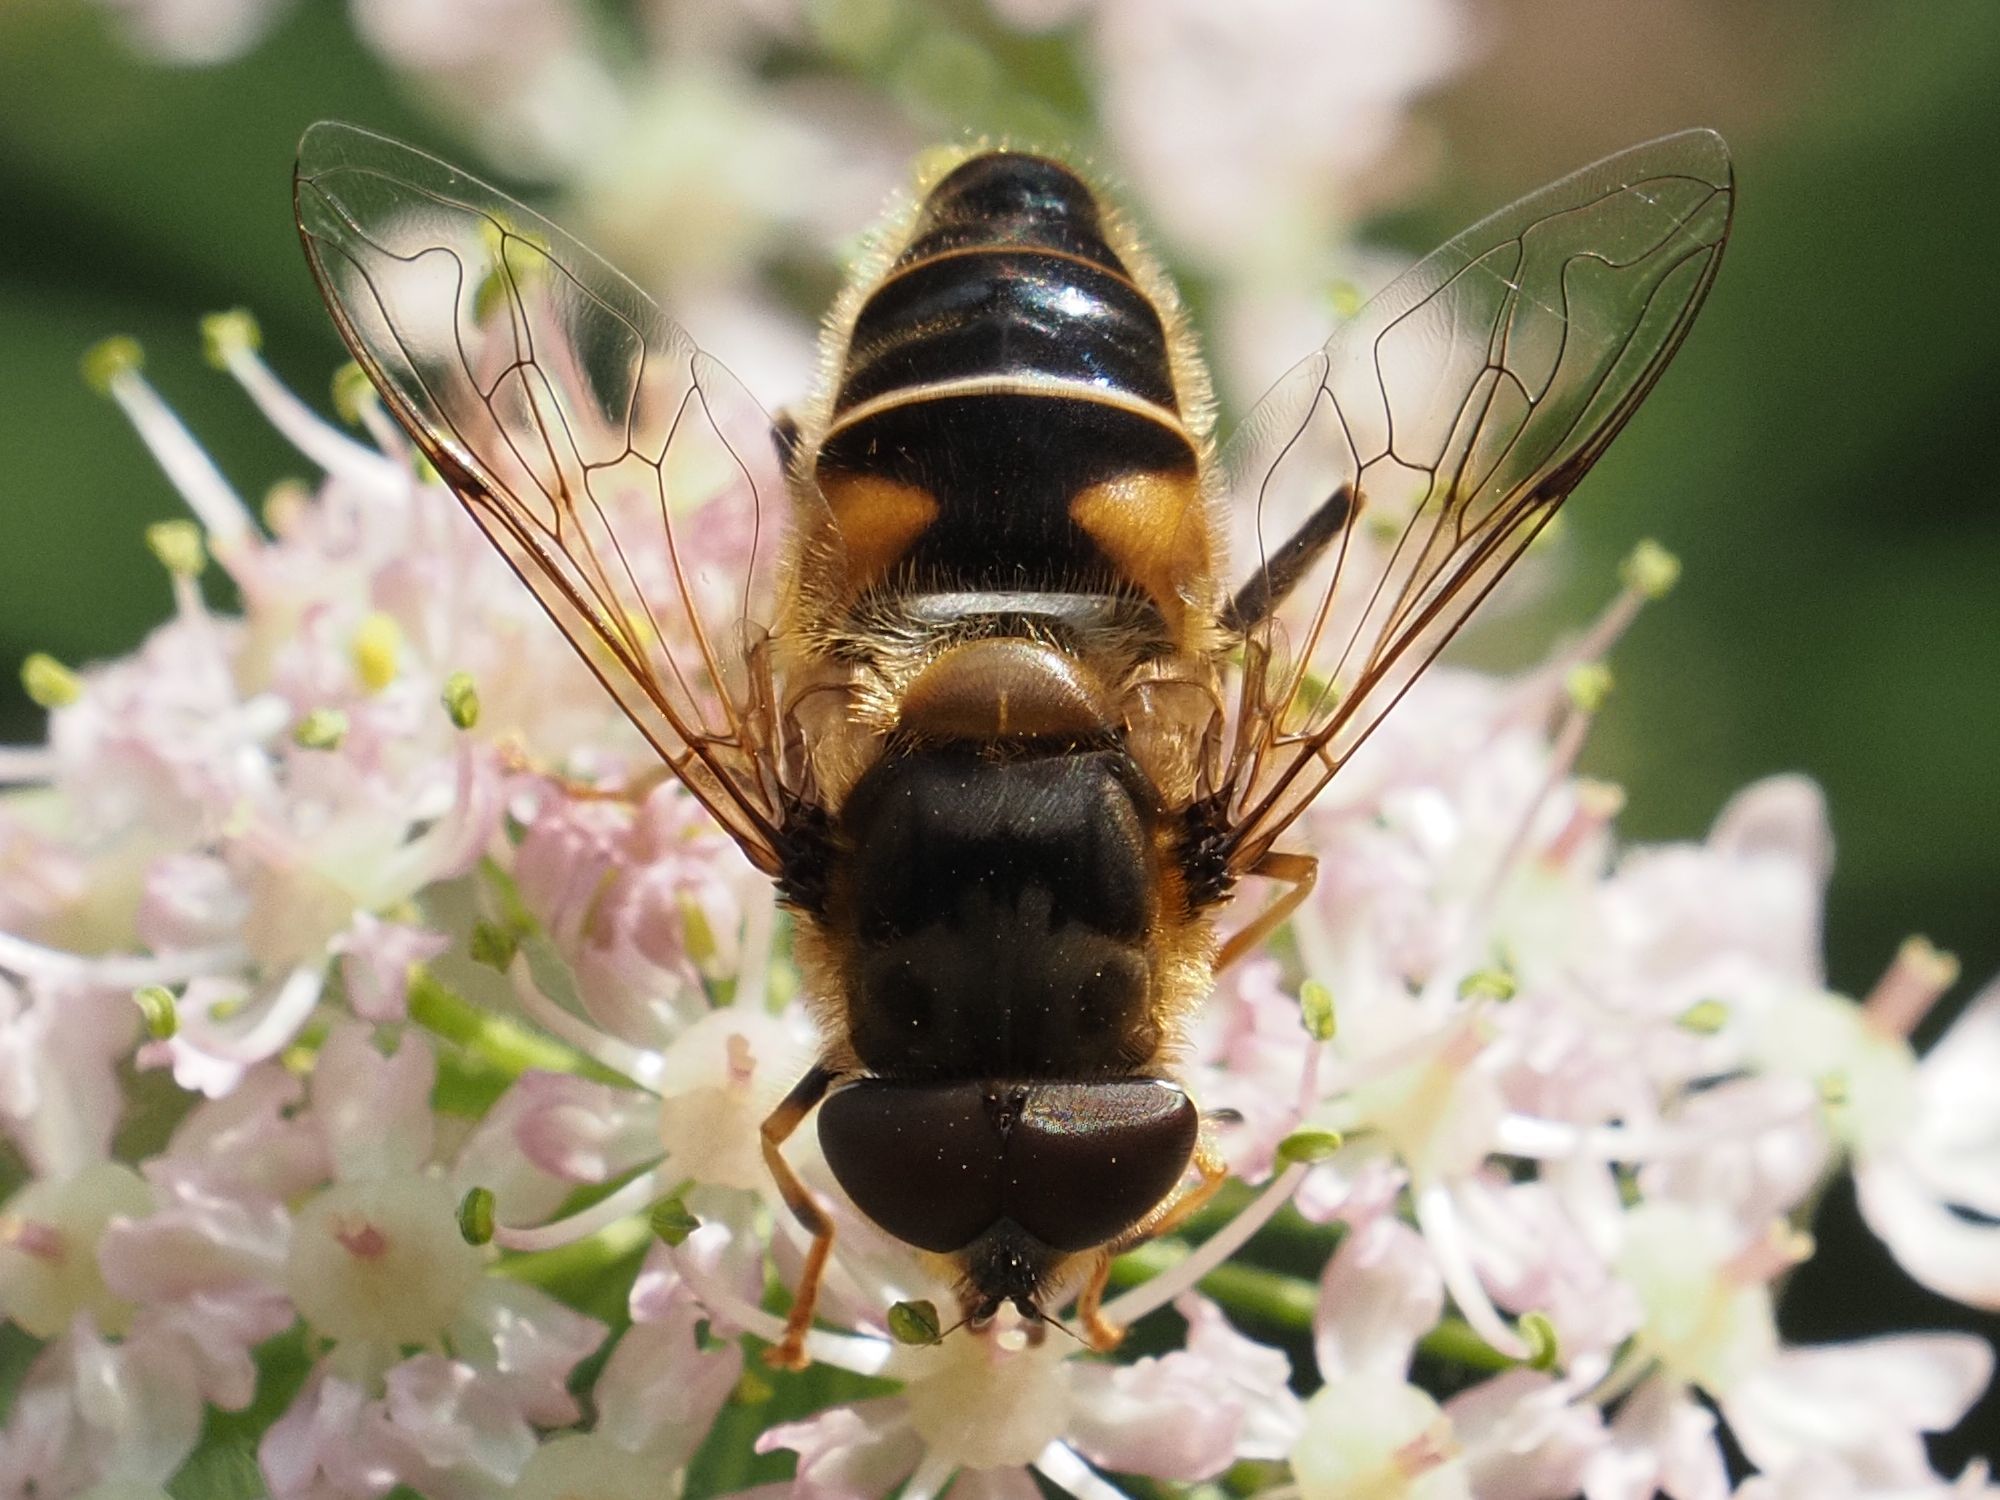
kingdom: Animalia
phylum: Arthropoda
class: Insecta
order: Diptera
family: Syrphidae
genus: Eristalis
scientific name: Eristalis pertinax
